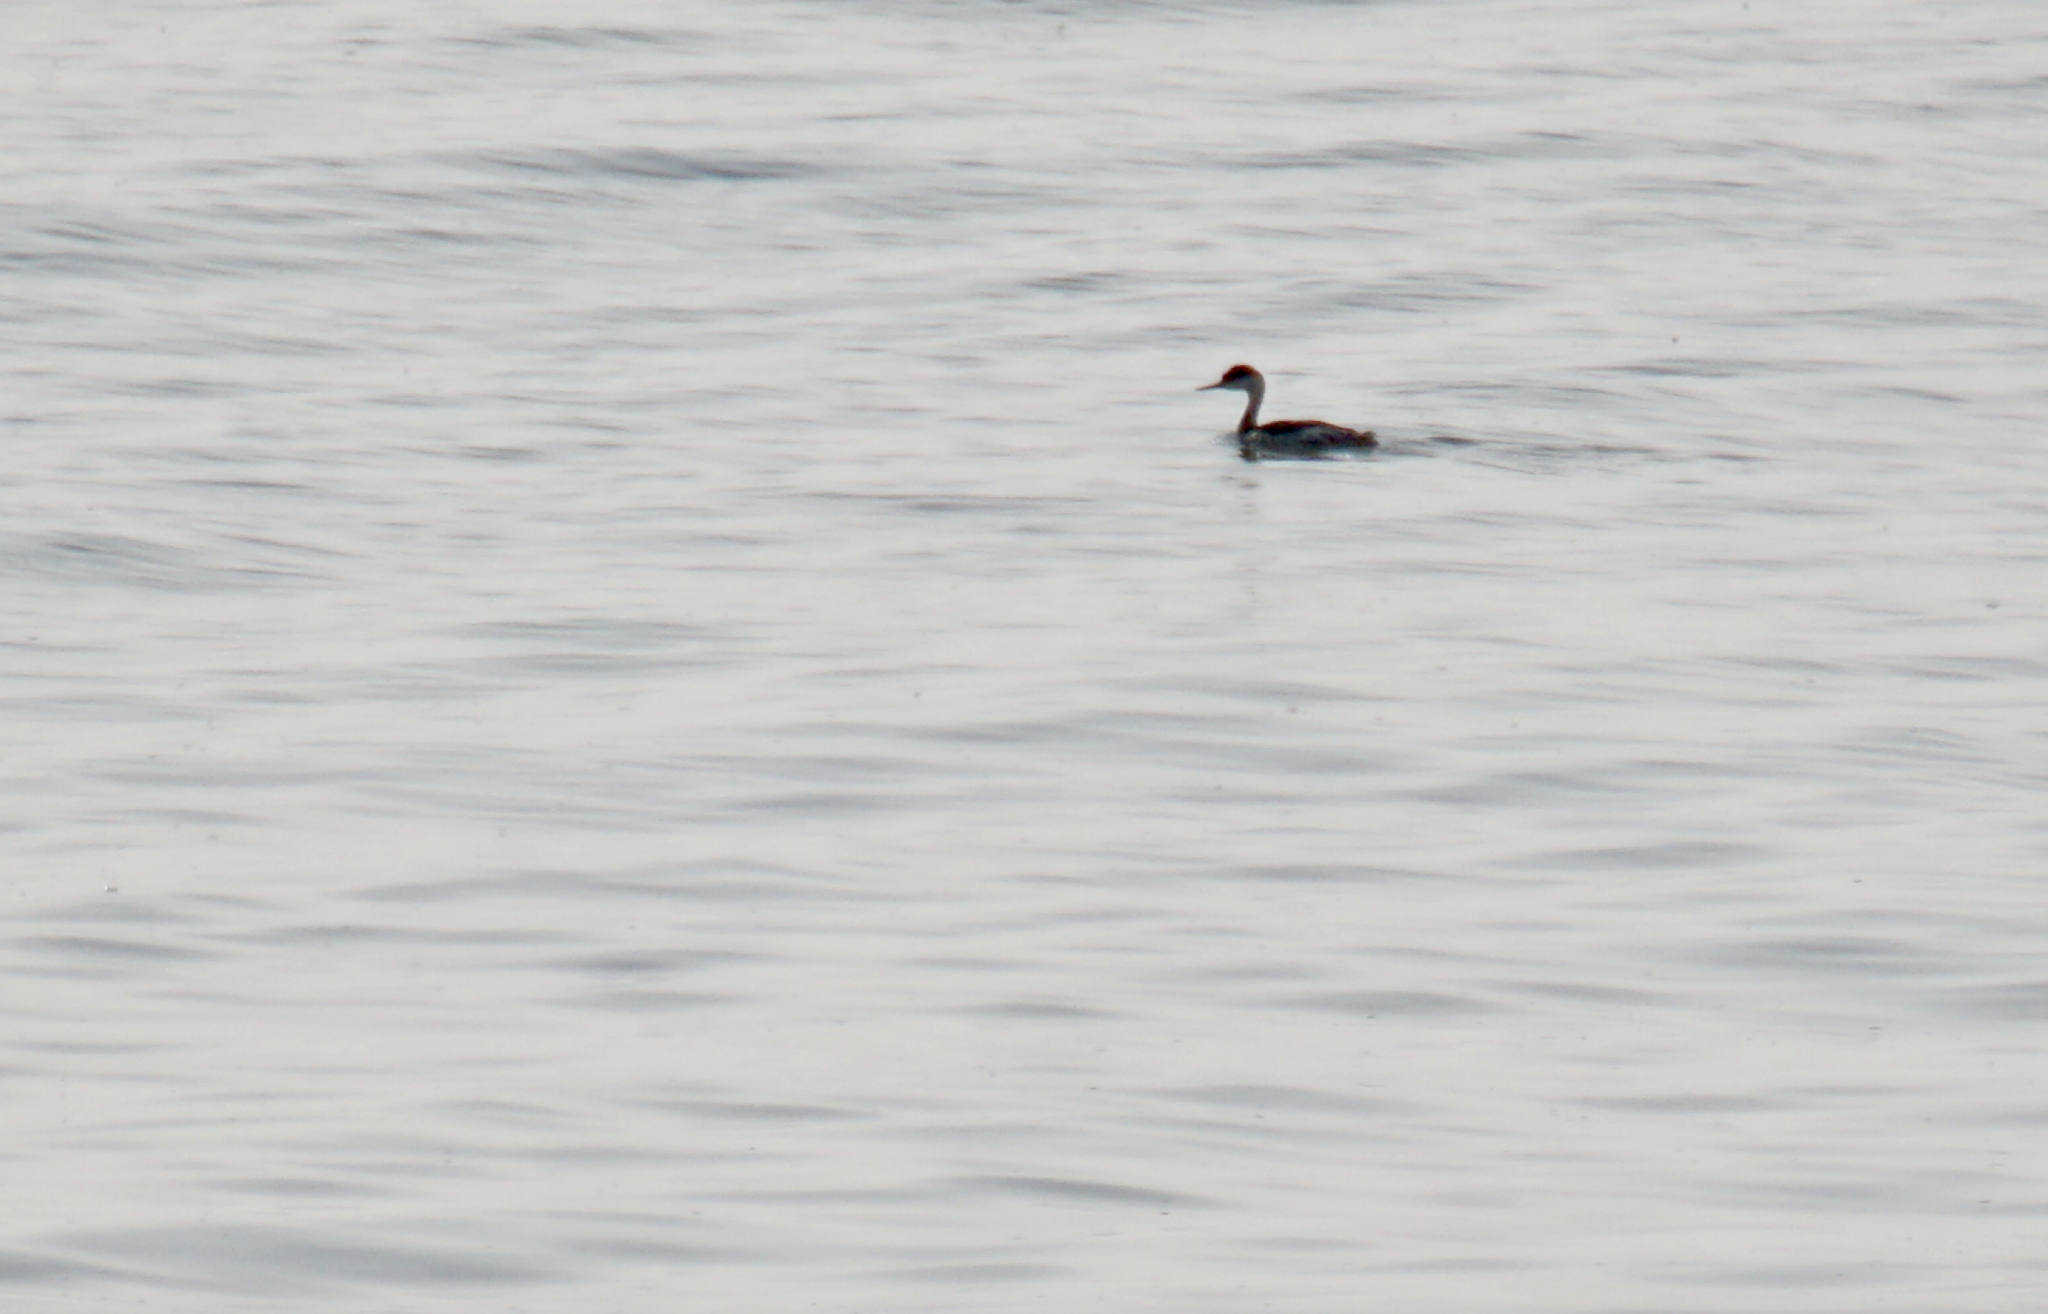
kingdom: Animalia
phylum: Chordata
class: Aves
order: Podicipediformes
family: Podicipedidae
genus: Aechmophorus
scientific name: Aechmophorus occidentalis
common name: Western grebe
